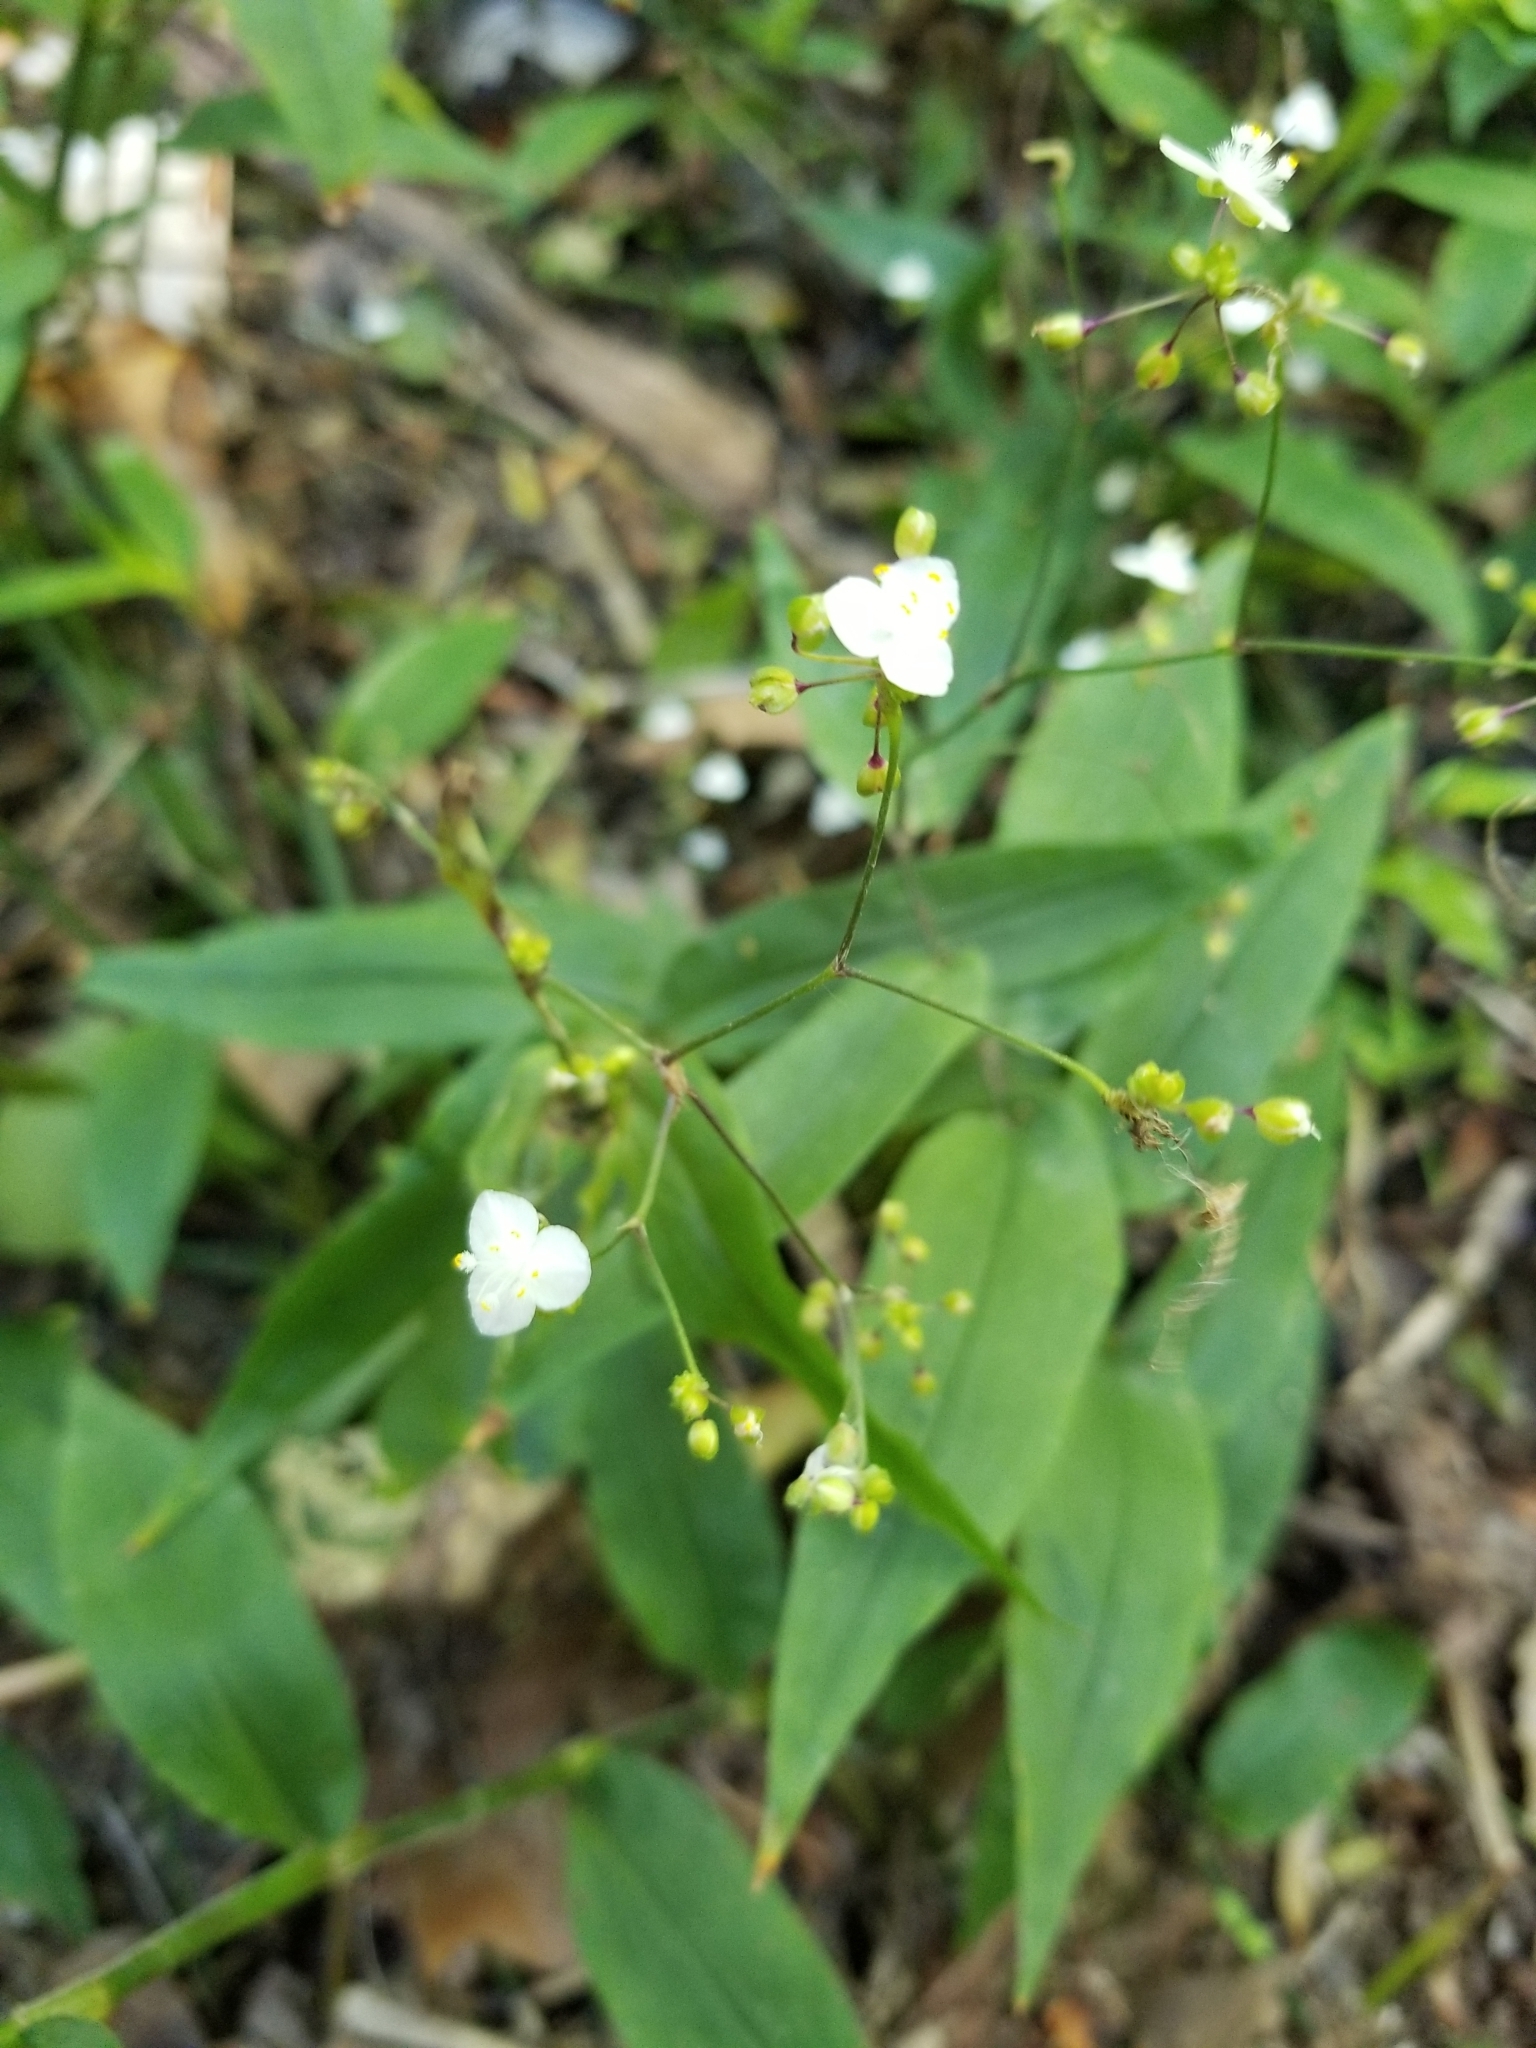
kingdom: Plantae
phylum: Tracheophyta
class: Liliopsida
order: Commelinales
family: Commelinaceae
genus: Gibasis
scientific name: Gibasis pellucida
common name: Dotted bridalveil
